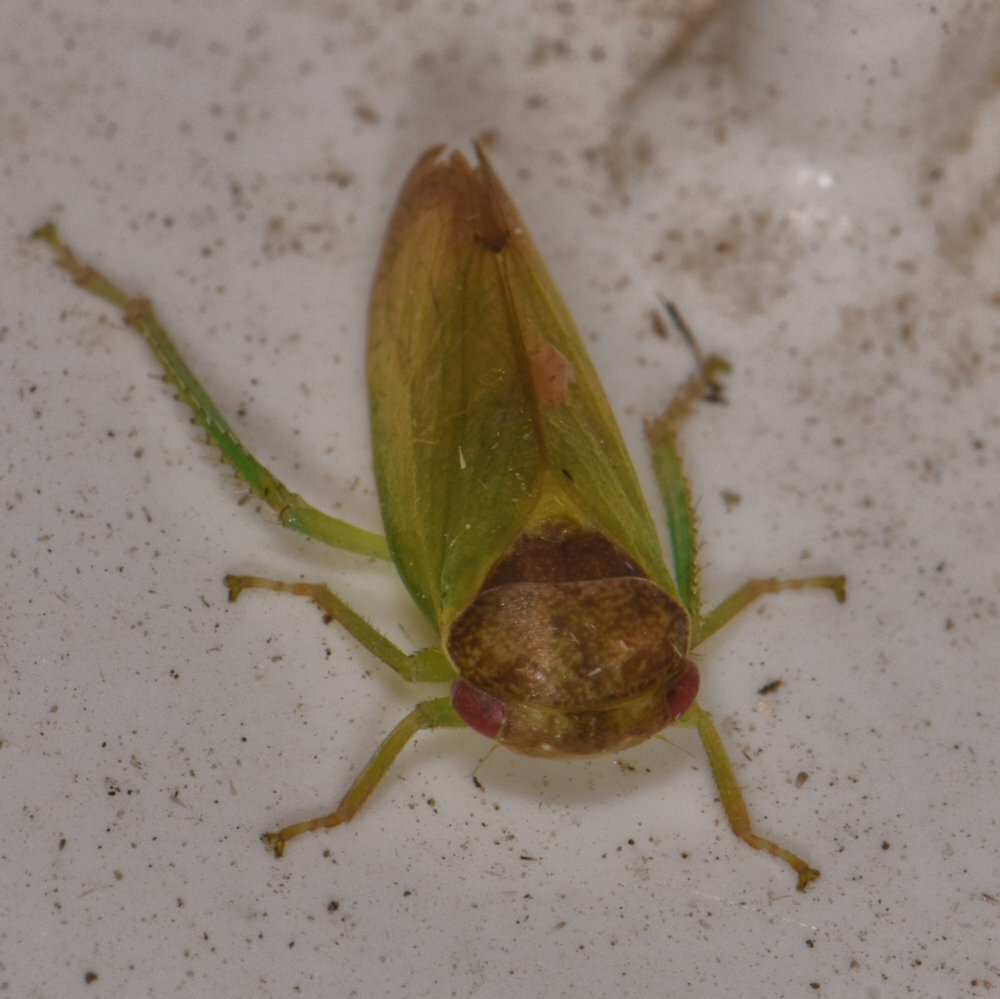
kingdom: Animalia
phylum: Arthropoda
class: Insecta
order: Hemiptera
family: Cicadellidae
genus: Iassus
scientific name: Iassus lanio
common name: Leafhopper
